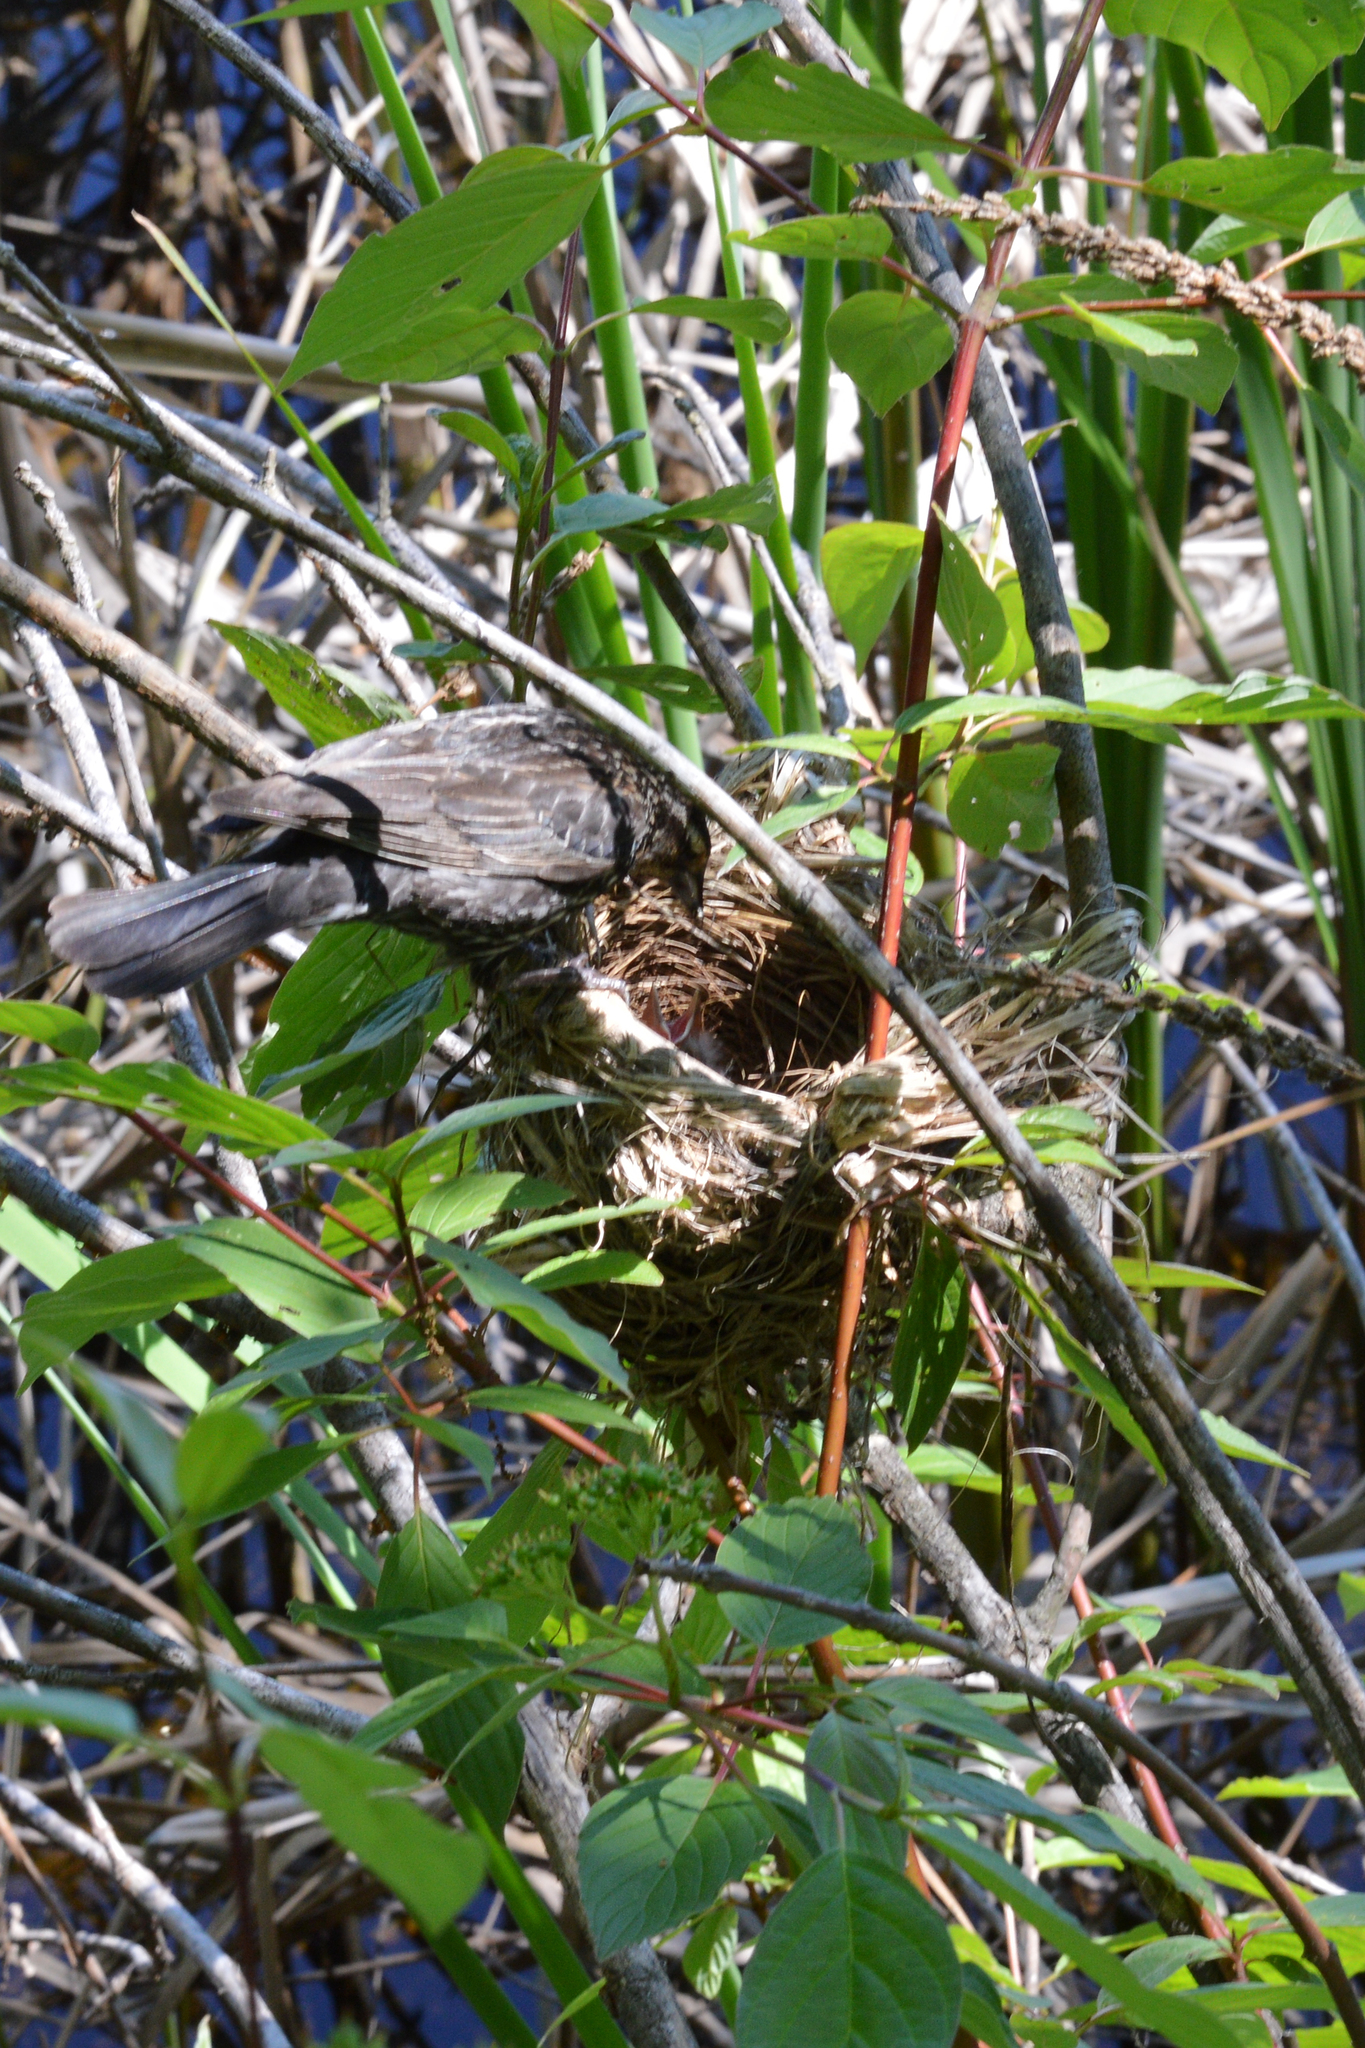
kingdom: Animalia
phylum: Chordata
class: Aves
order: Passeriformes
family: Icteridae
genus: Agelaius
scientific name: Agelaius phoeniceus
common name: Red-winged blackbird
